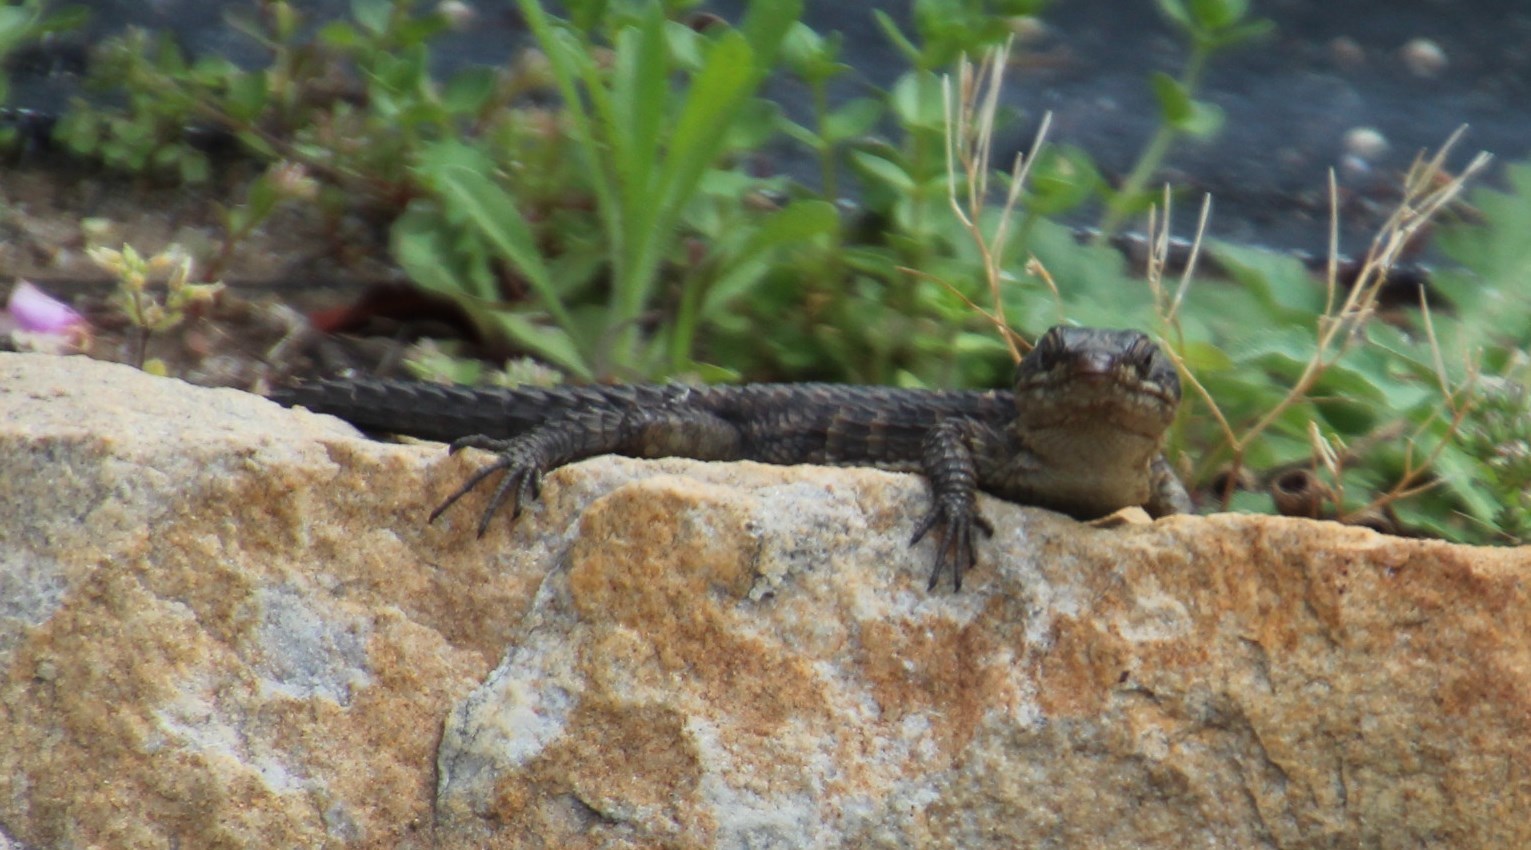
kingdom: Animalia
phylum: Chordata
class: Squamata
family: Cordylidae
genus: Cordylus
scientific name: Cordylus cordylus
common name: Cape girdled lizard
